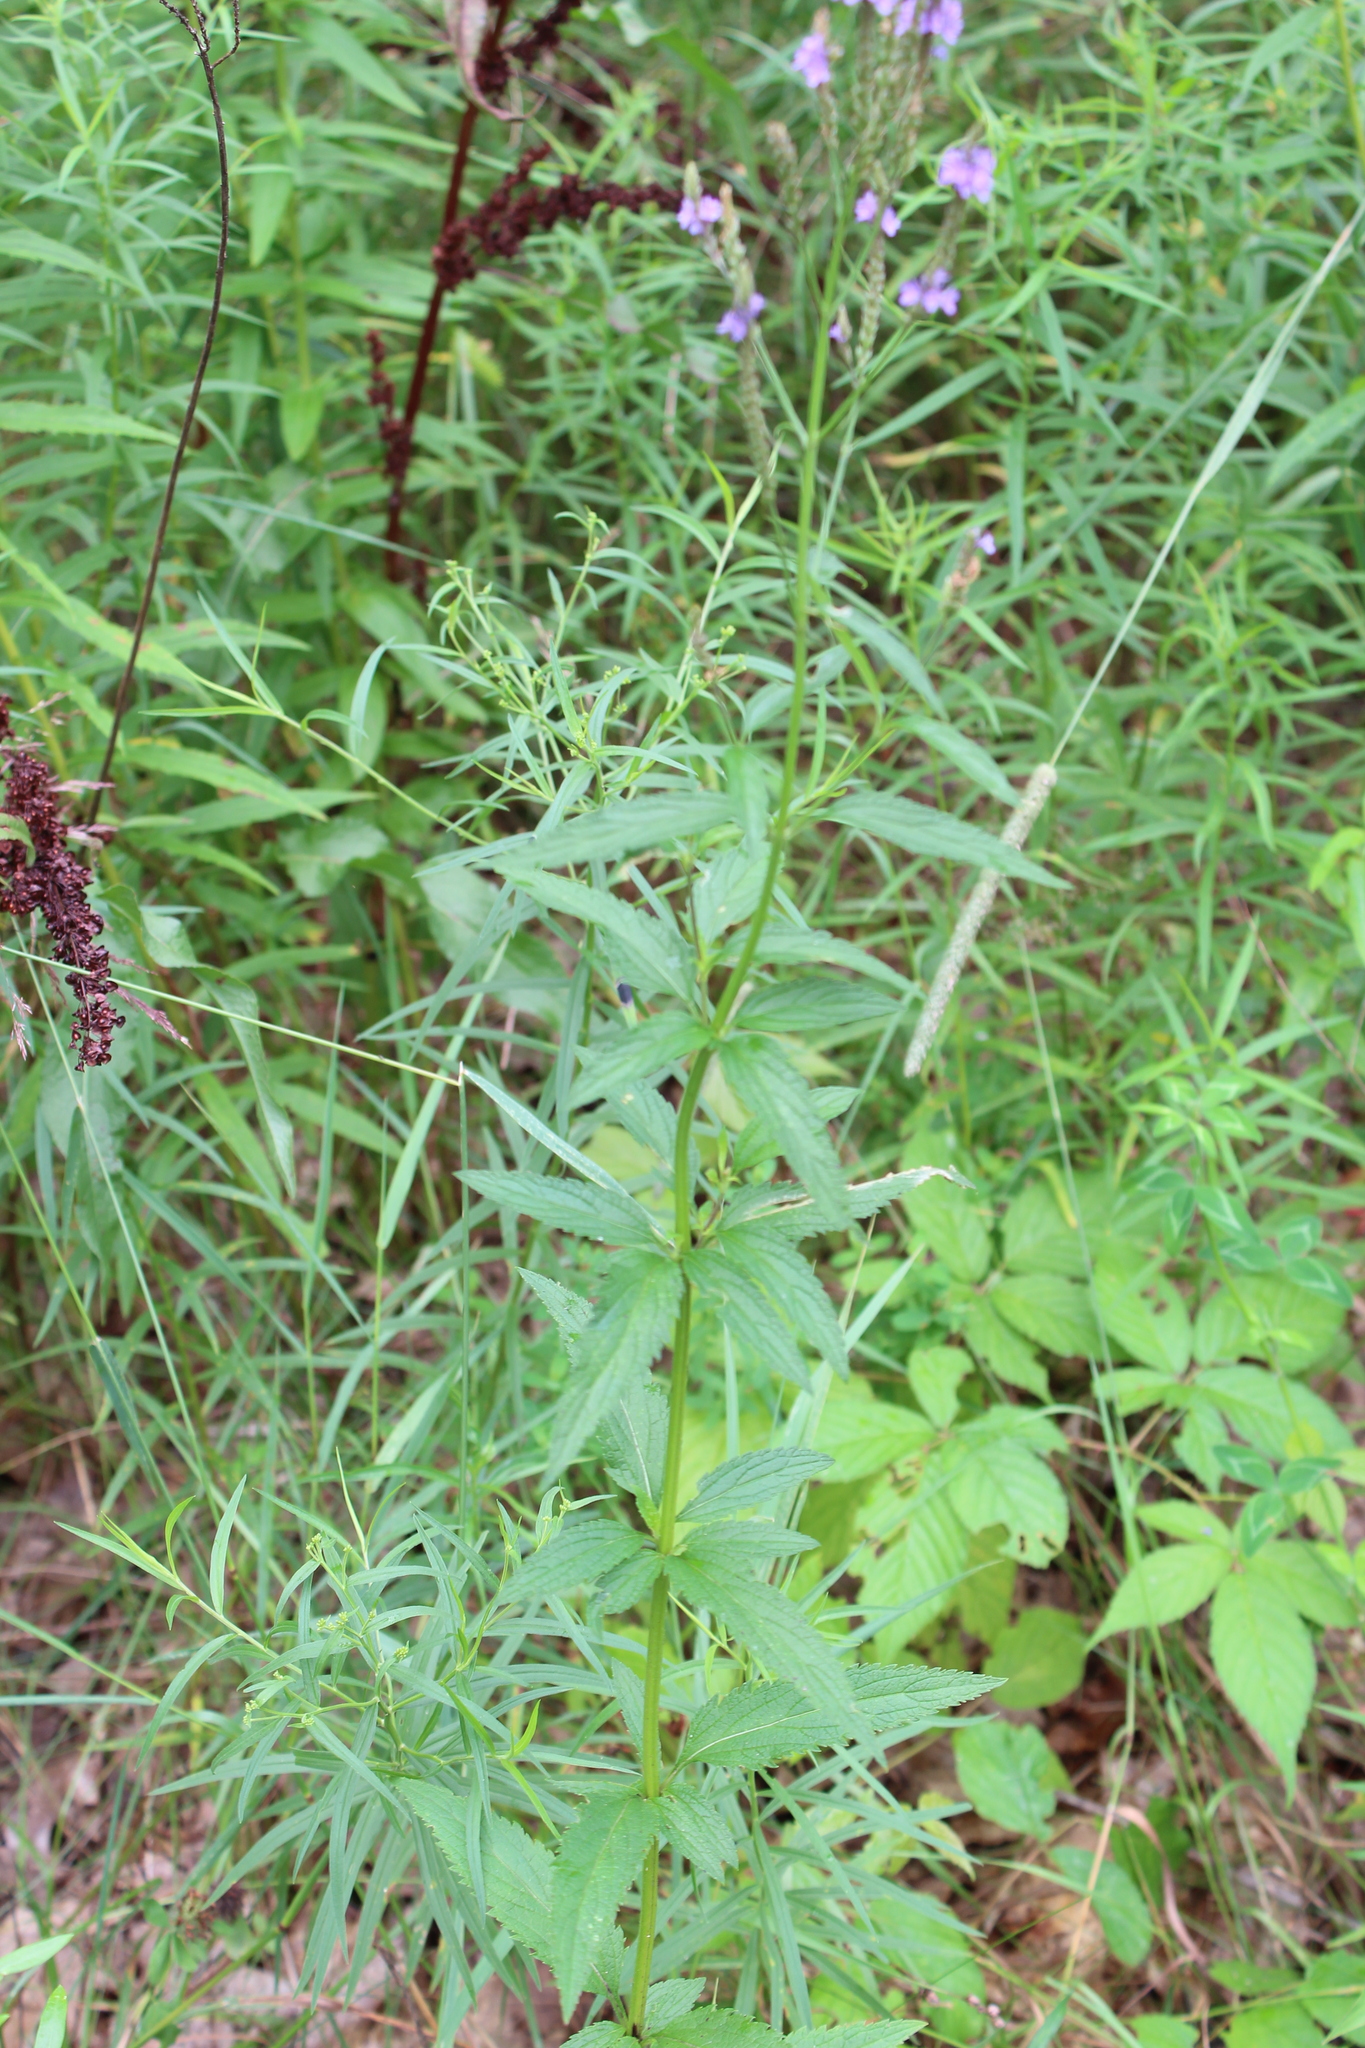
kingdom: Plantae
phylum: Tracheophyta
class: Magnoliopsida
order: Lamiales
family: Verbenaceae
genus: Verbena
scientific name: Verbena hastata
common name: American blue vervain
